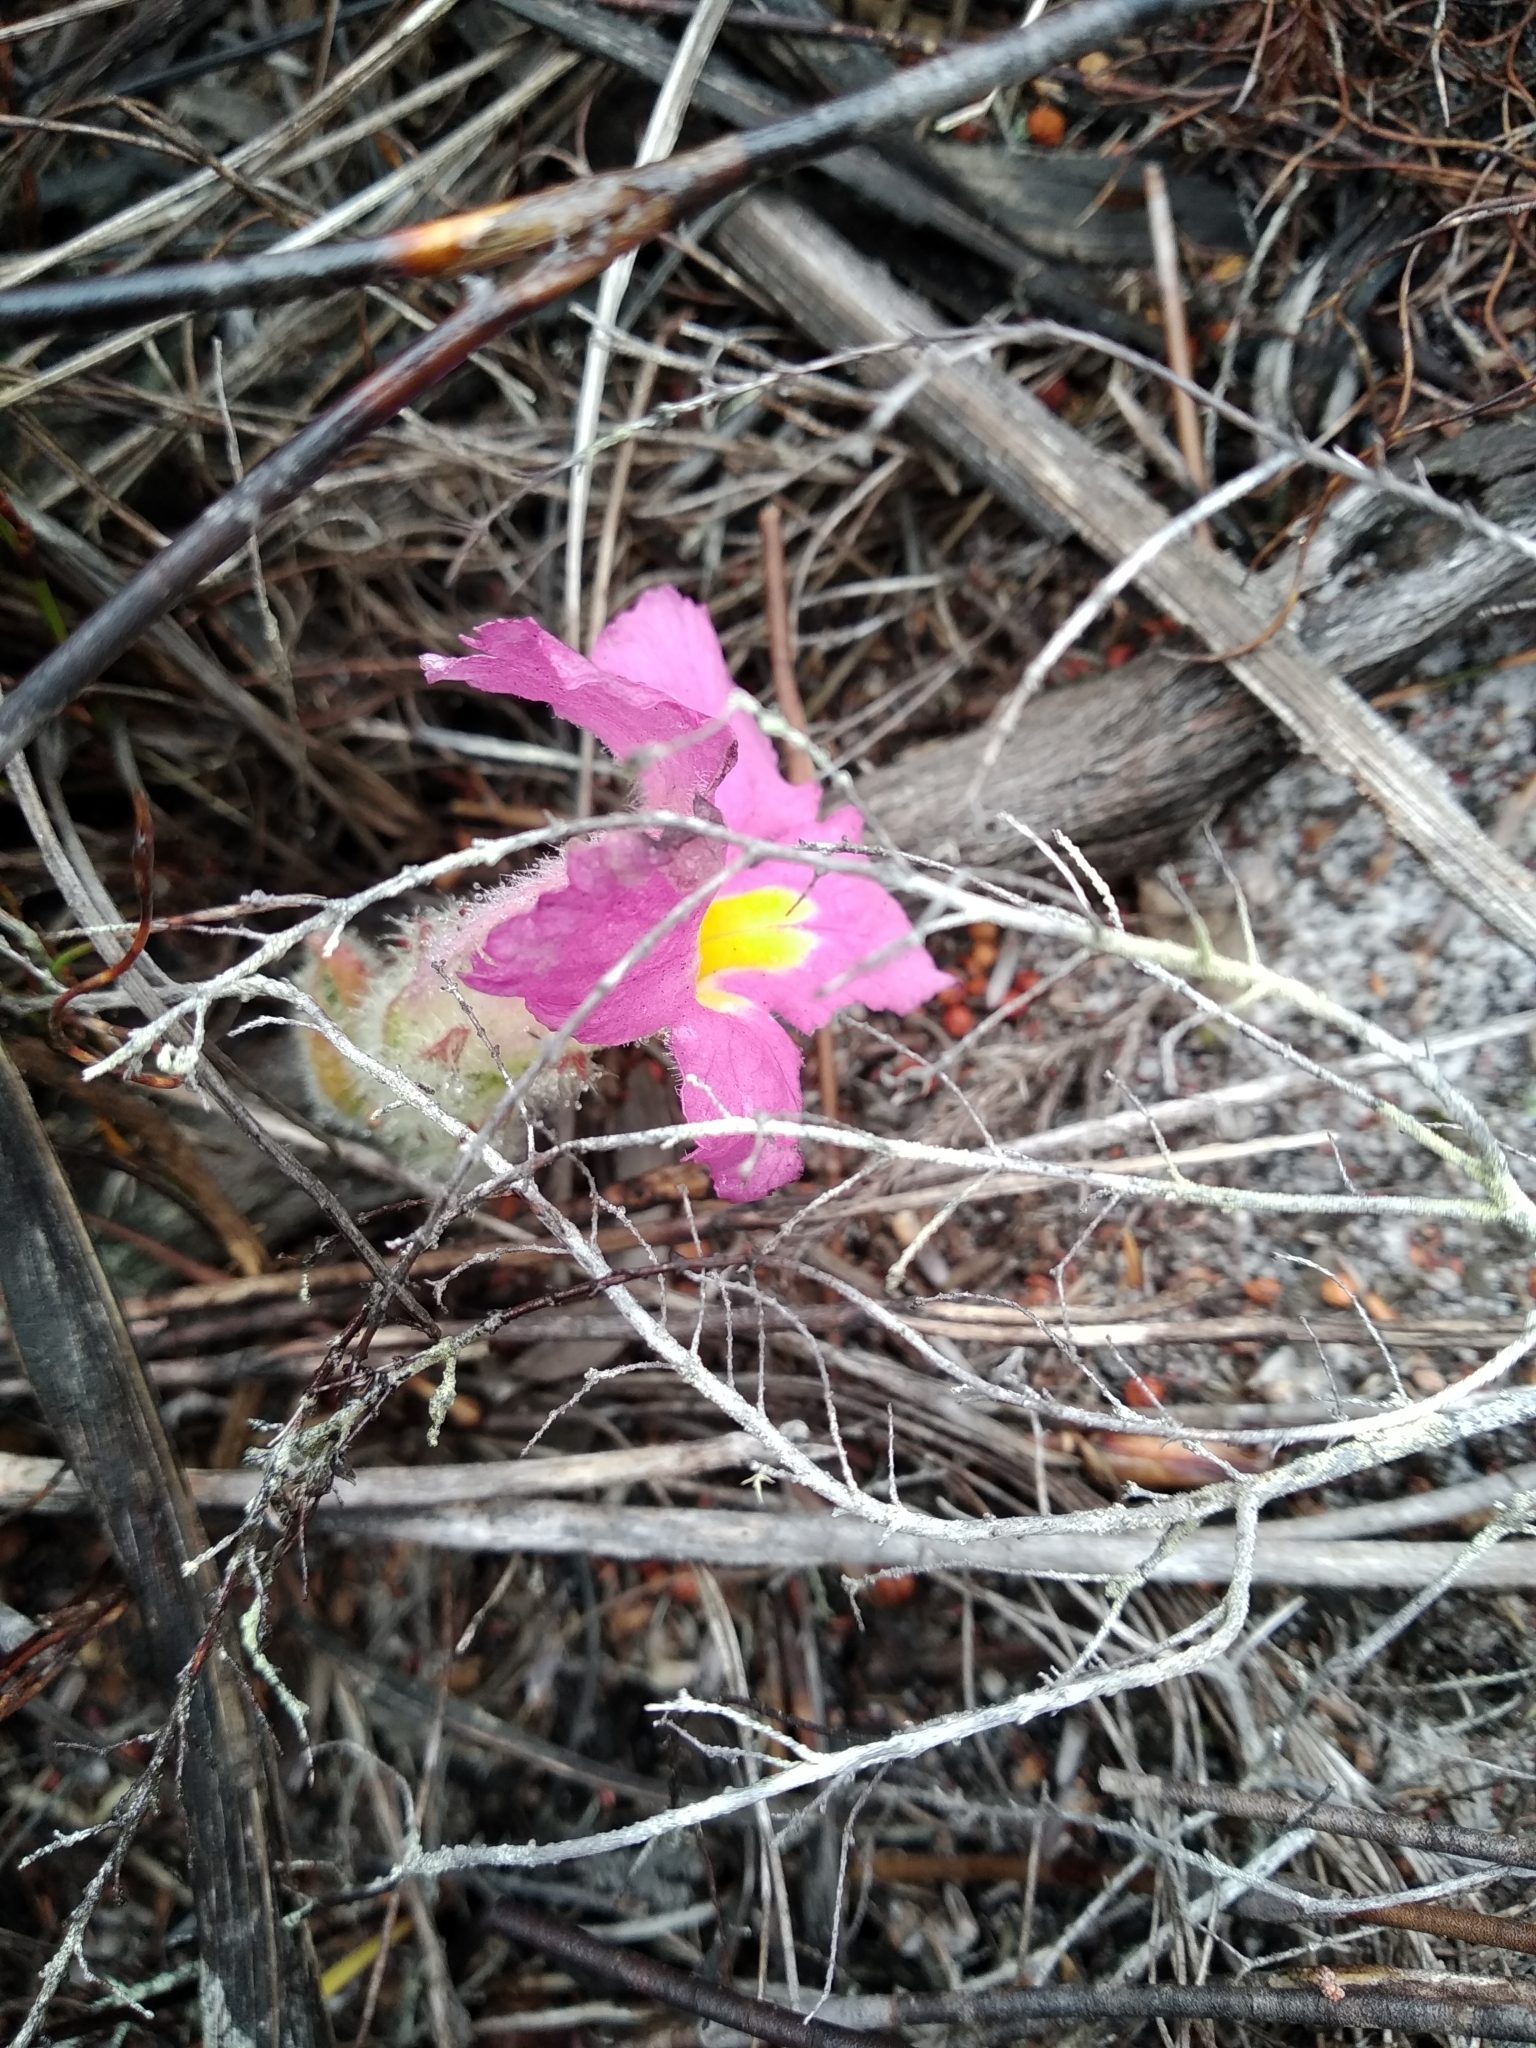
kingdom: Plantae
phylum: Tracheophyta
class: Magnoliopsida
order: Lamiales
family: Orobanchaceae
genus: Harveya
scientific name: Harveya purpurea
